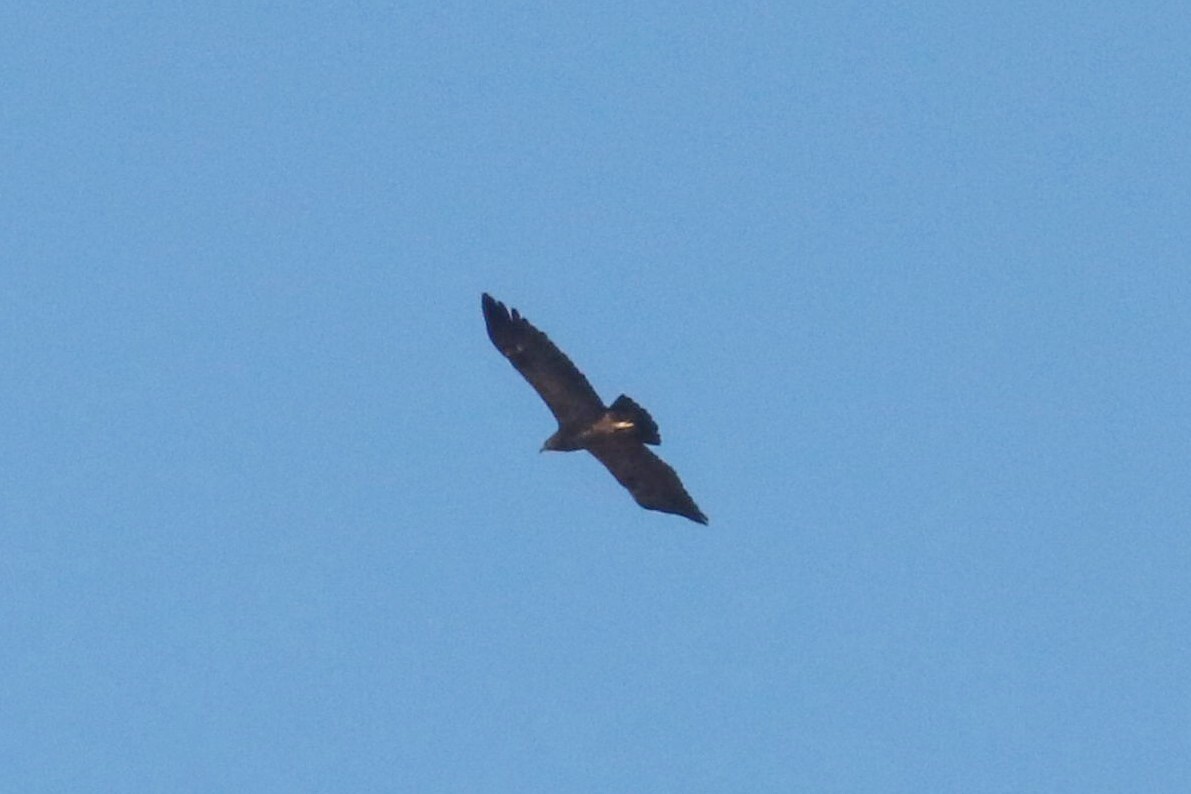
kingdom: Animalia
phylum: Chordata
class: Aves
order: Accipitriformes
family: Accipitridae
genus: Aquila
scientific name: Aquila clanga
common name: Greater spotted eagle
